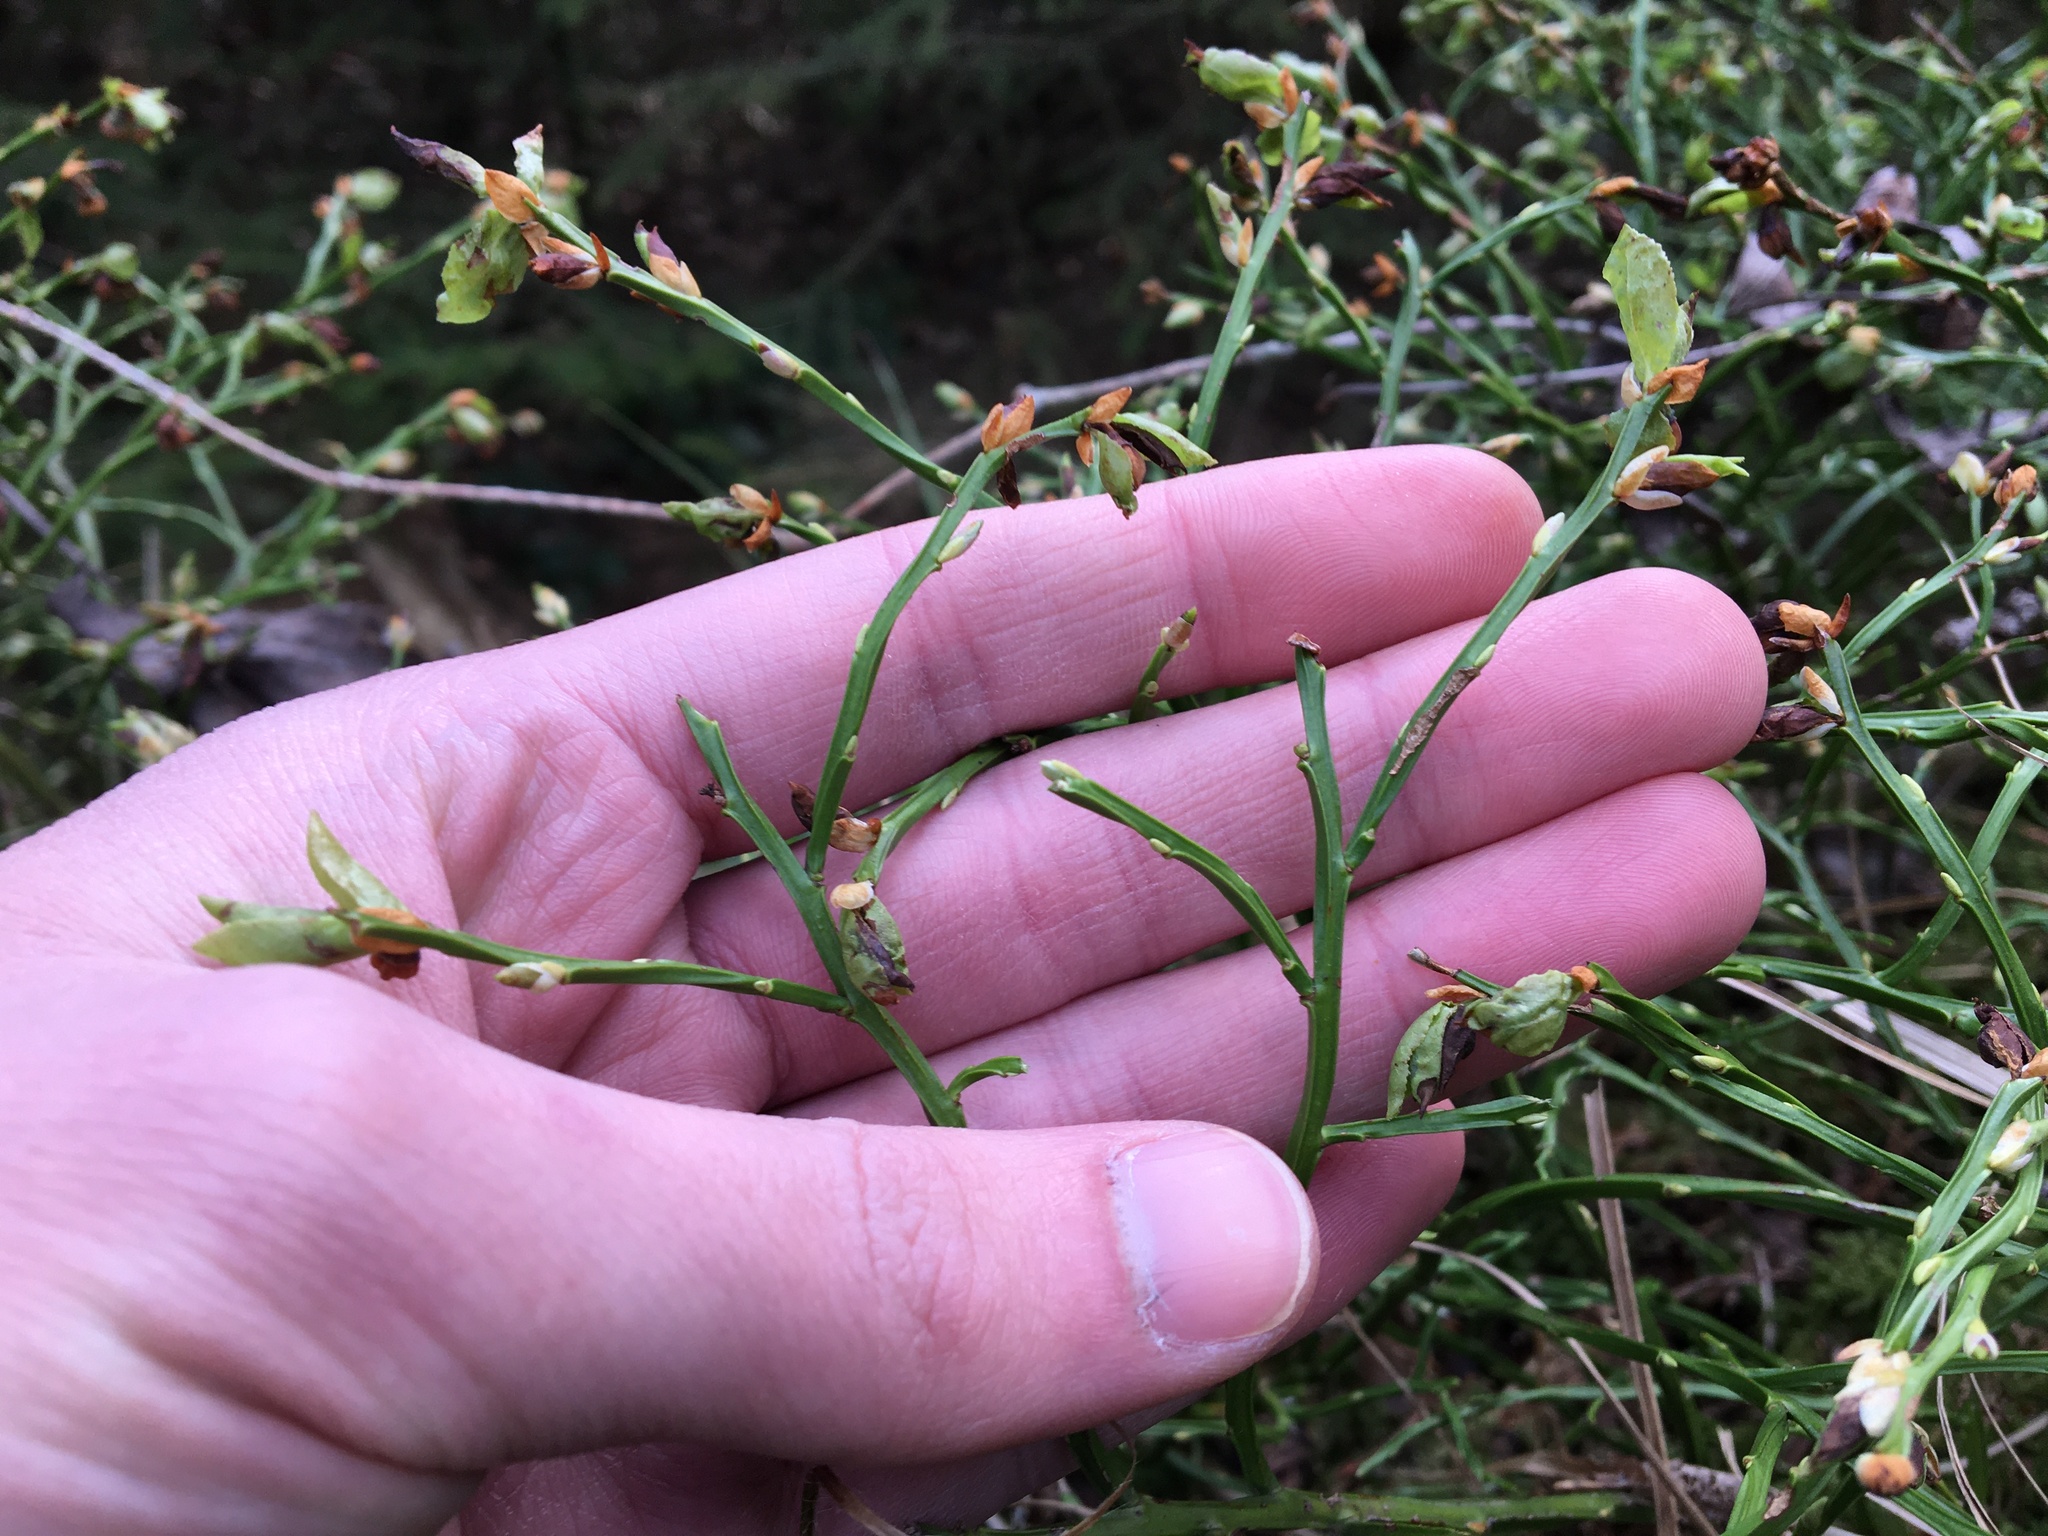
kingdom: Plantae
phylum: Tracheophyta
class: Magnoliopsida
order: Ericales
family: Ericaceae
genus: Vaccinium
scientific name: Vaccinium myrtillus
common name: Bilberry
